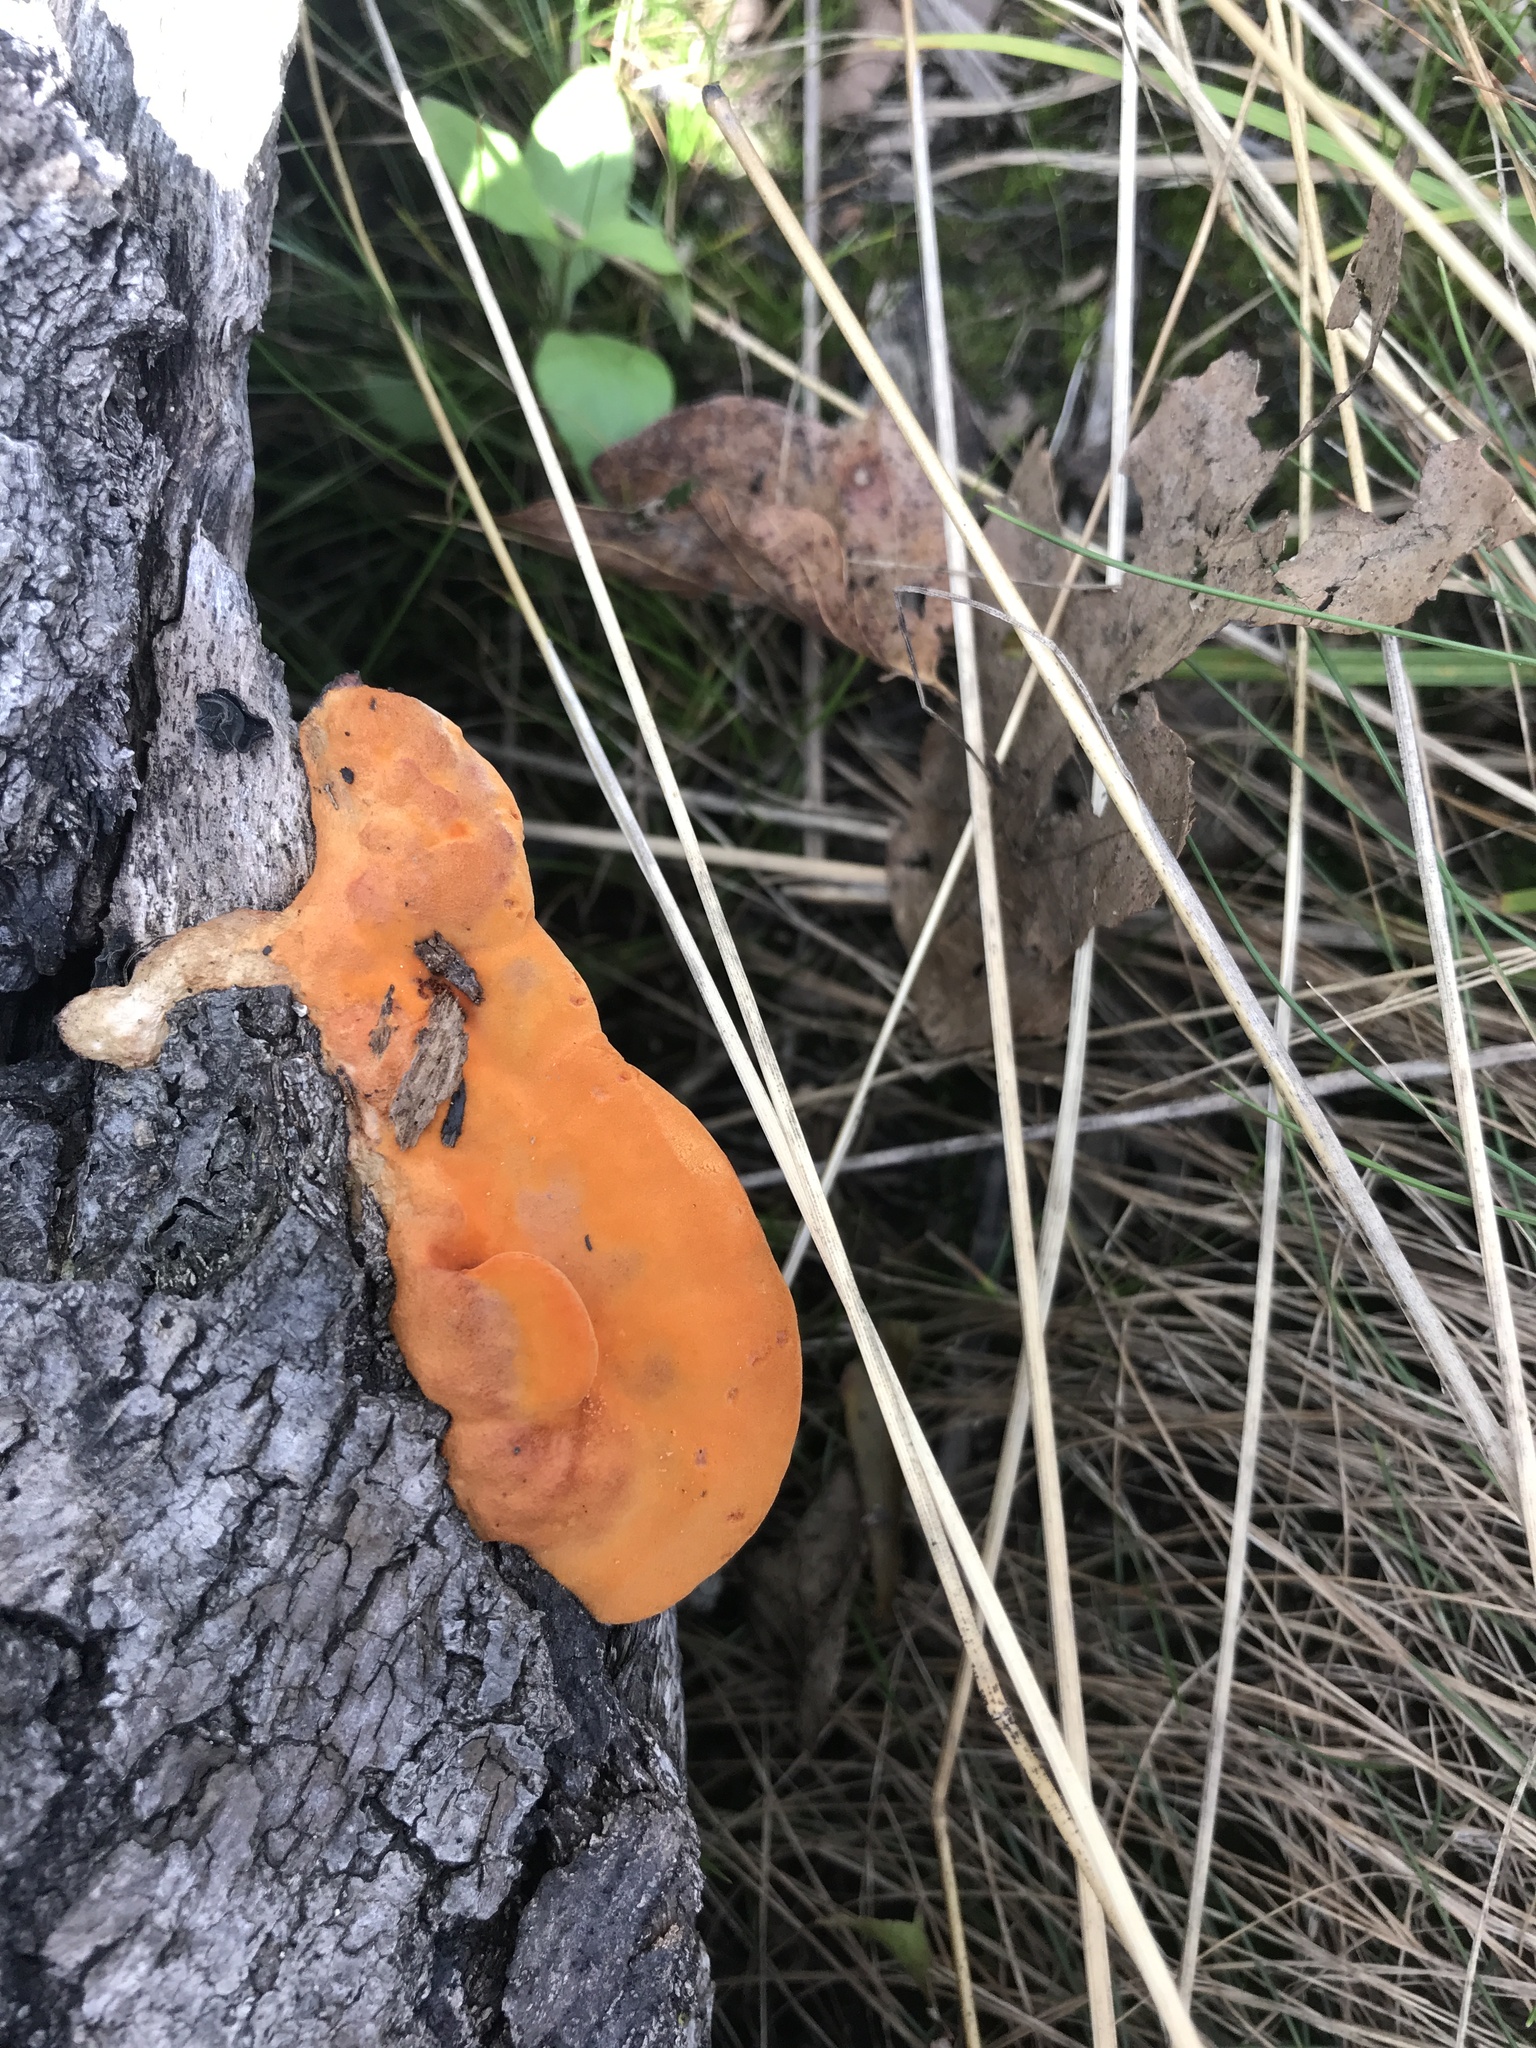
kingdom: Fungi
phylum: Basidiomycota
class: Agaricomycetes
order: Polyporales
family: Polyporaceae
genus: Trametes
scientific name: Trametes cinnabarina
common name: Northern cinnabar polypore
